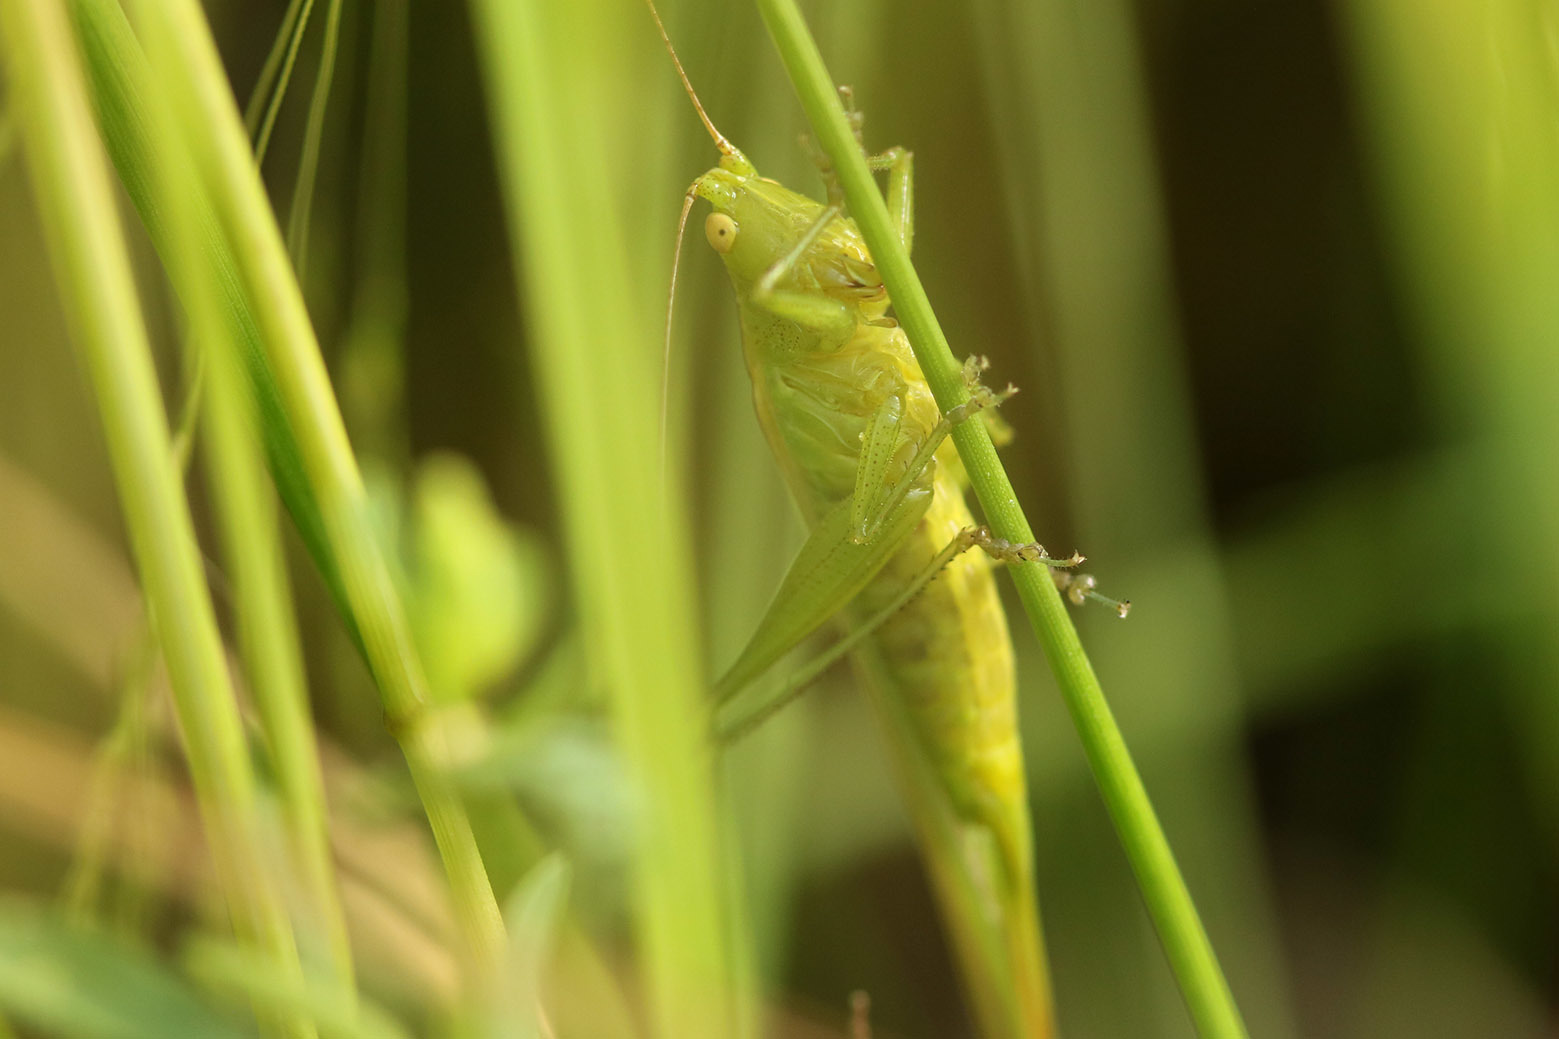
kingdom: Animalia
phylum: Arthropoda
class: Insecta
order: Orthoptera
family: Tettigoniidae
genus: Conocephalus
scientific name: Conocephalus longipes
